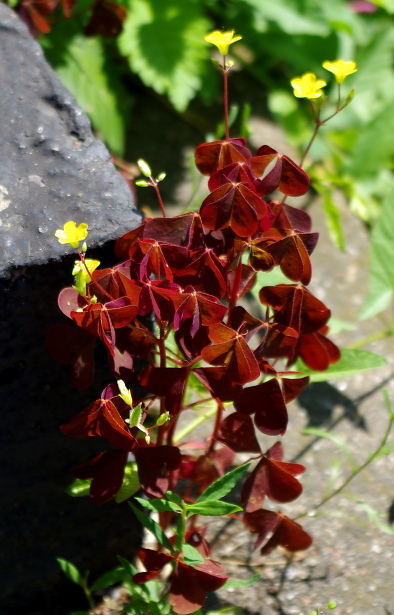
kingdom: Plantae
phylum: Tracheophyta
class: Magnoliopsida
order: Oxalidales
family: Oxalidaceae
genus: Oxalis
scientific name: Oxalis stricta
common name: Upright yellow-sorrel
